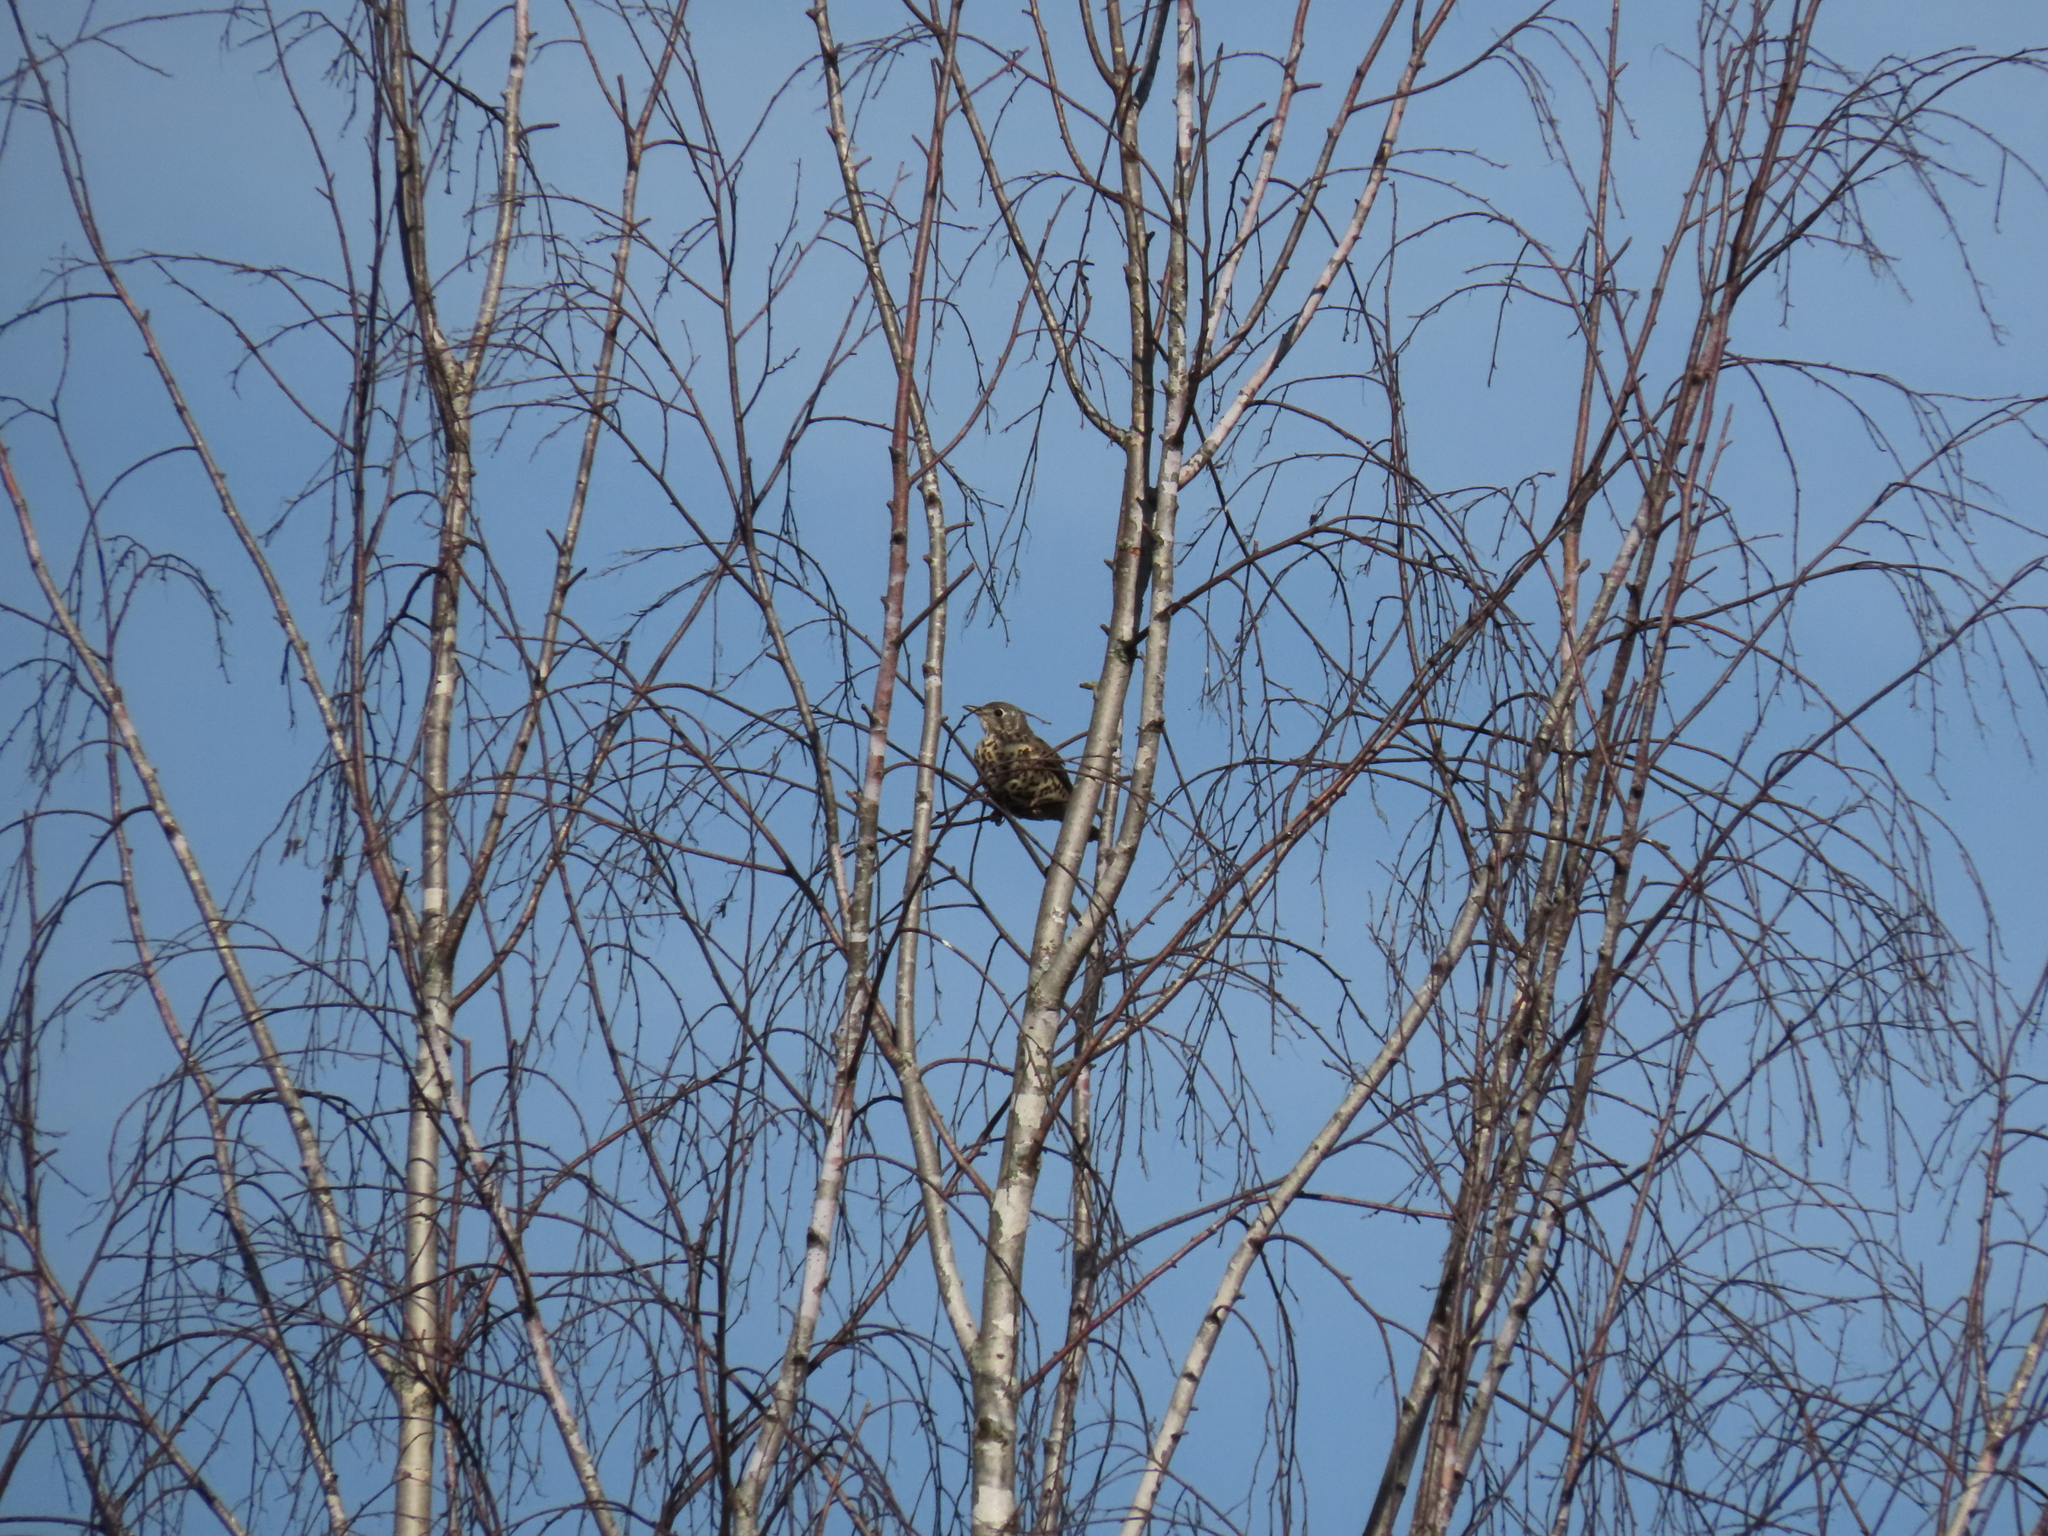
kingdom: Animalia
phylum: Chordata
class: Aves
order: Passeriformes
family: Turdidae
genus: Turdus
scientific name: Turdus viscivorus
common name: Mistle thrush
